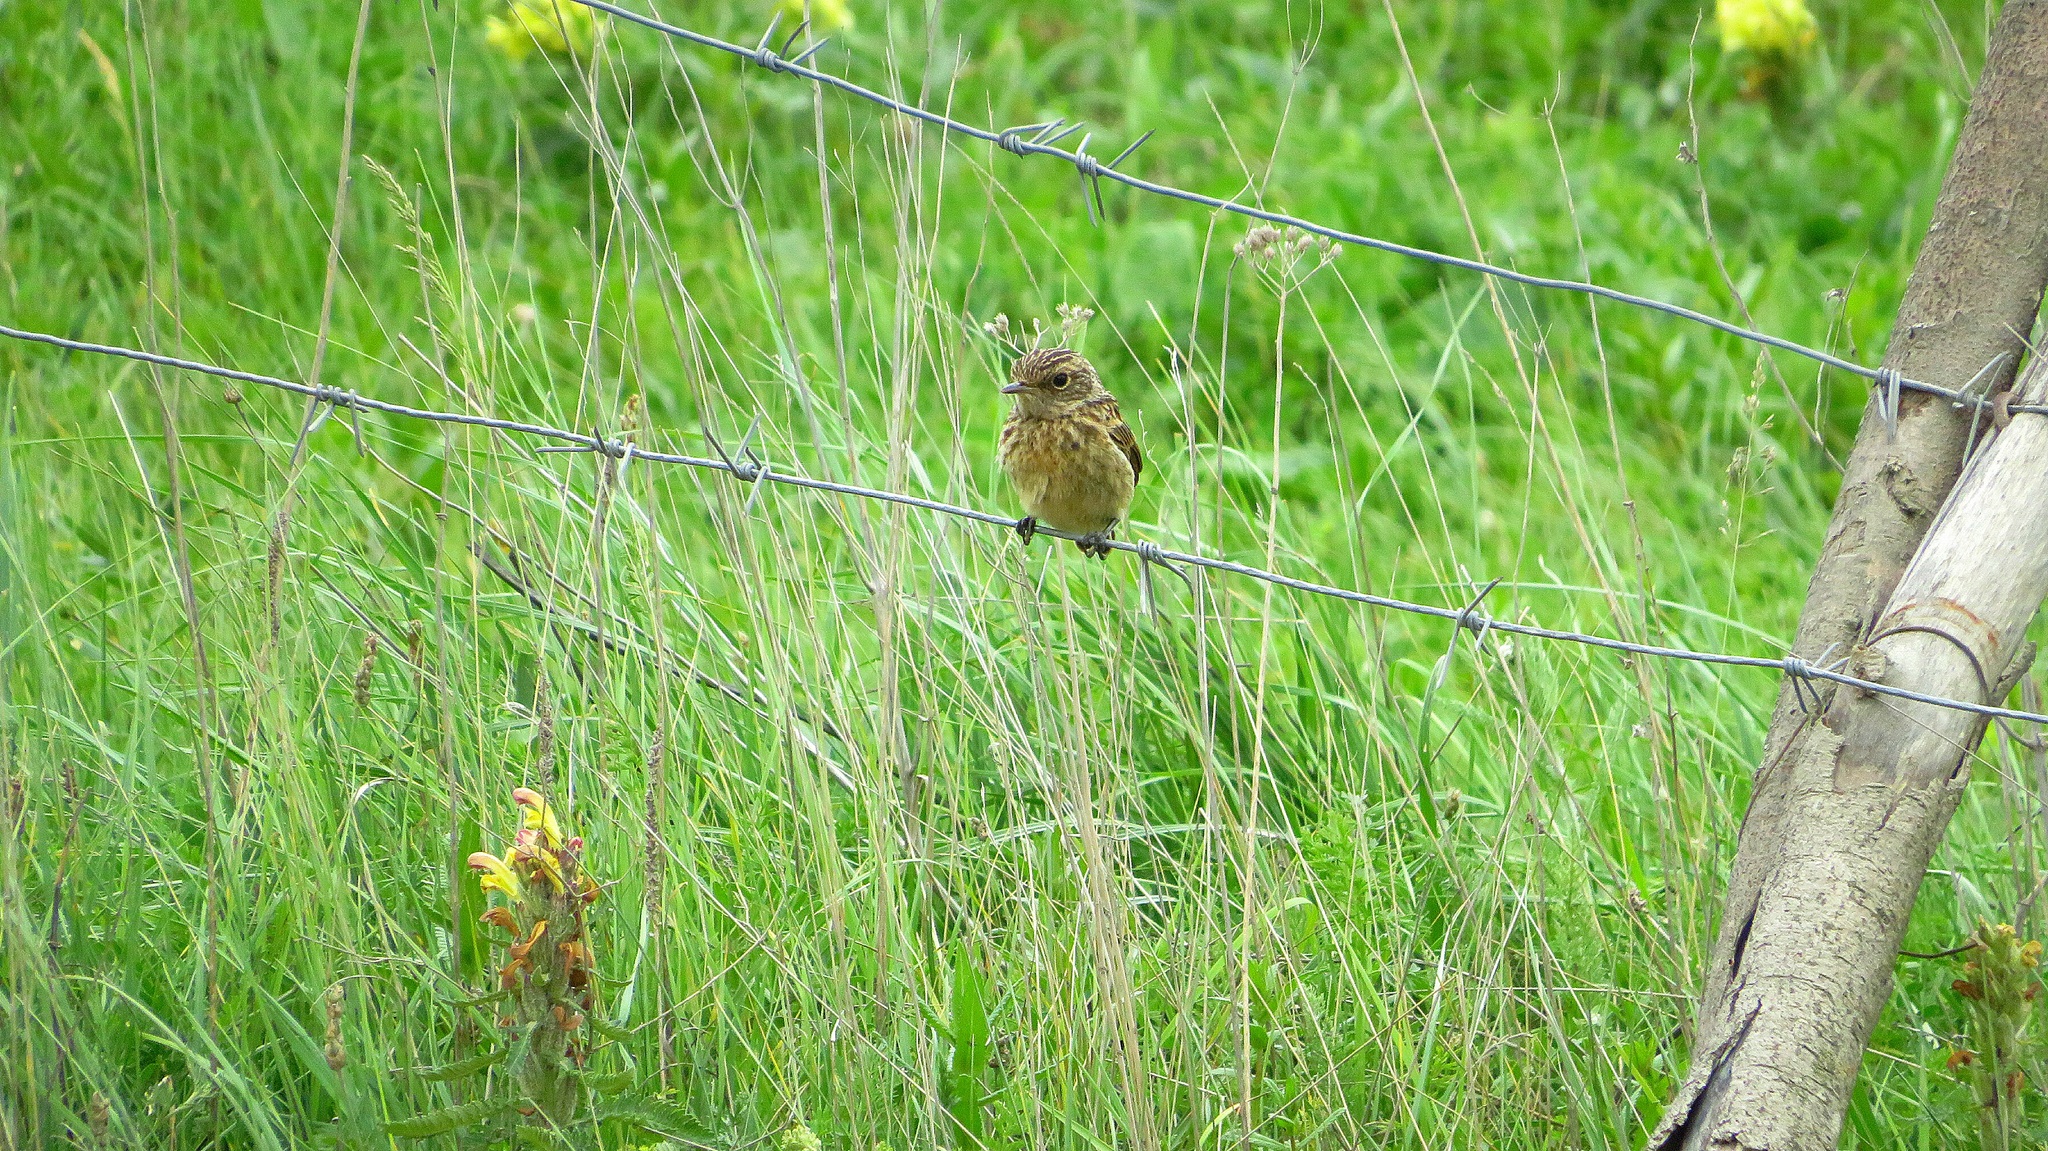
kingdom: Animalia
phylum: Chordata
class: Aves
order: Passeriformes
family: Muscicapidae
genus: Saxicola
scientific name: Saxicola rubicola
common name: European stonechat
